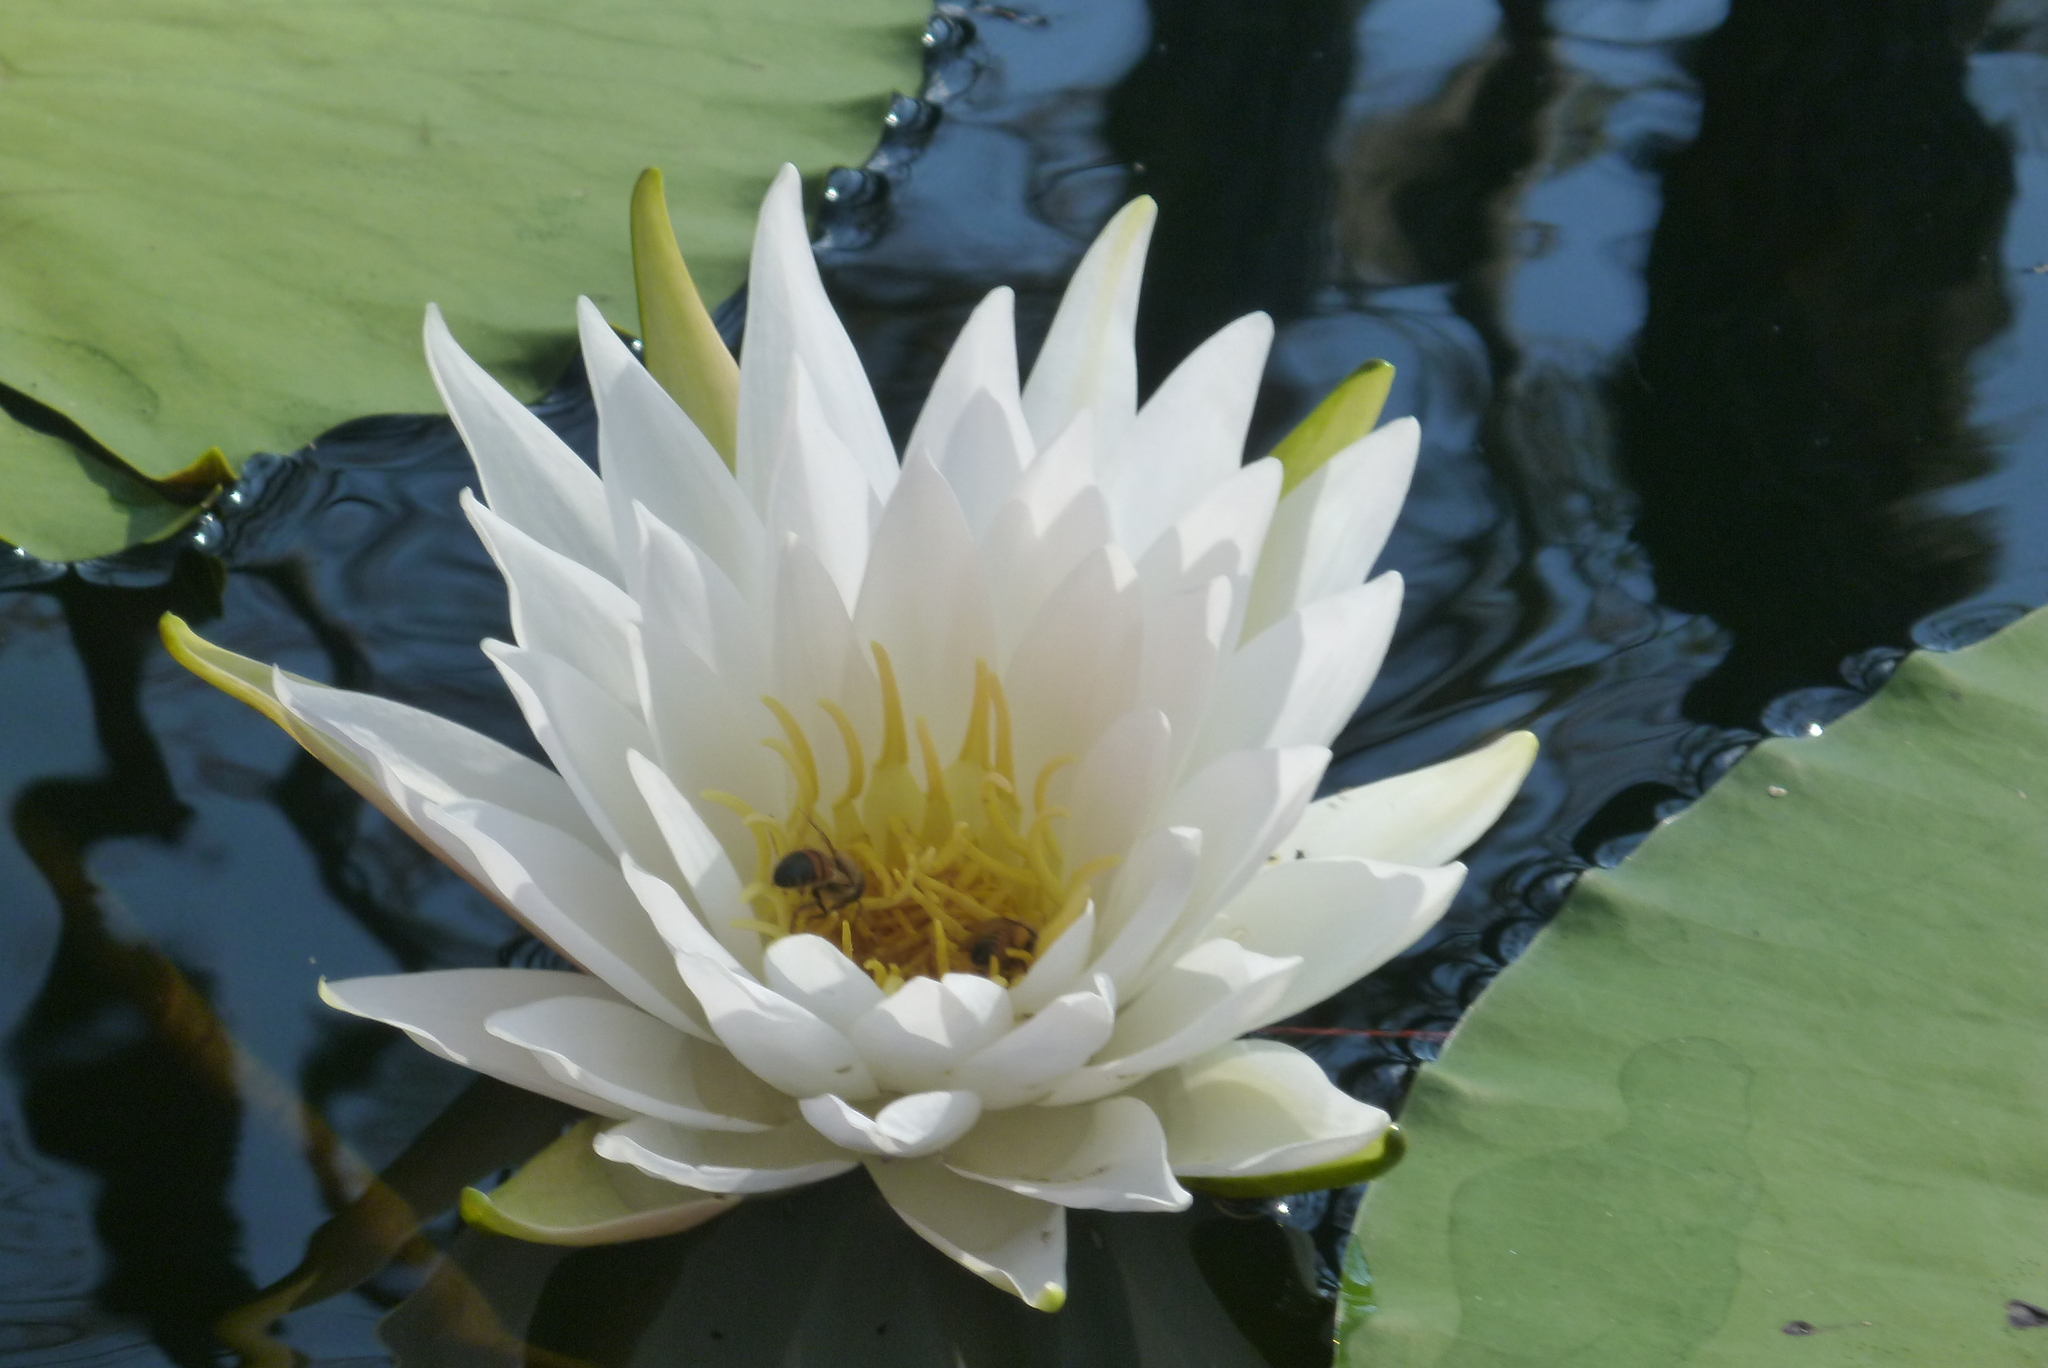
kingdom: Plantae
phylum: Tracheophyta
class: Magnoliopsida
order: Nymphaeales
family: Nymphaeaceae
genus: Nymphaea
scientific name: Nymphaea odorata
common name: Fragrant water-lily
